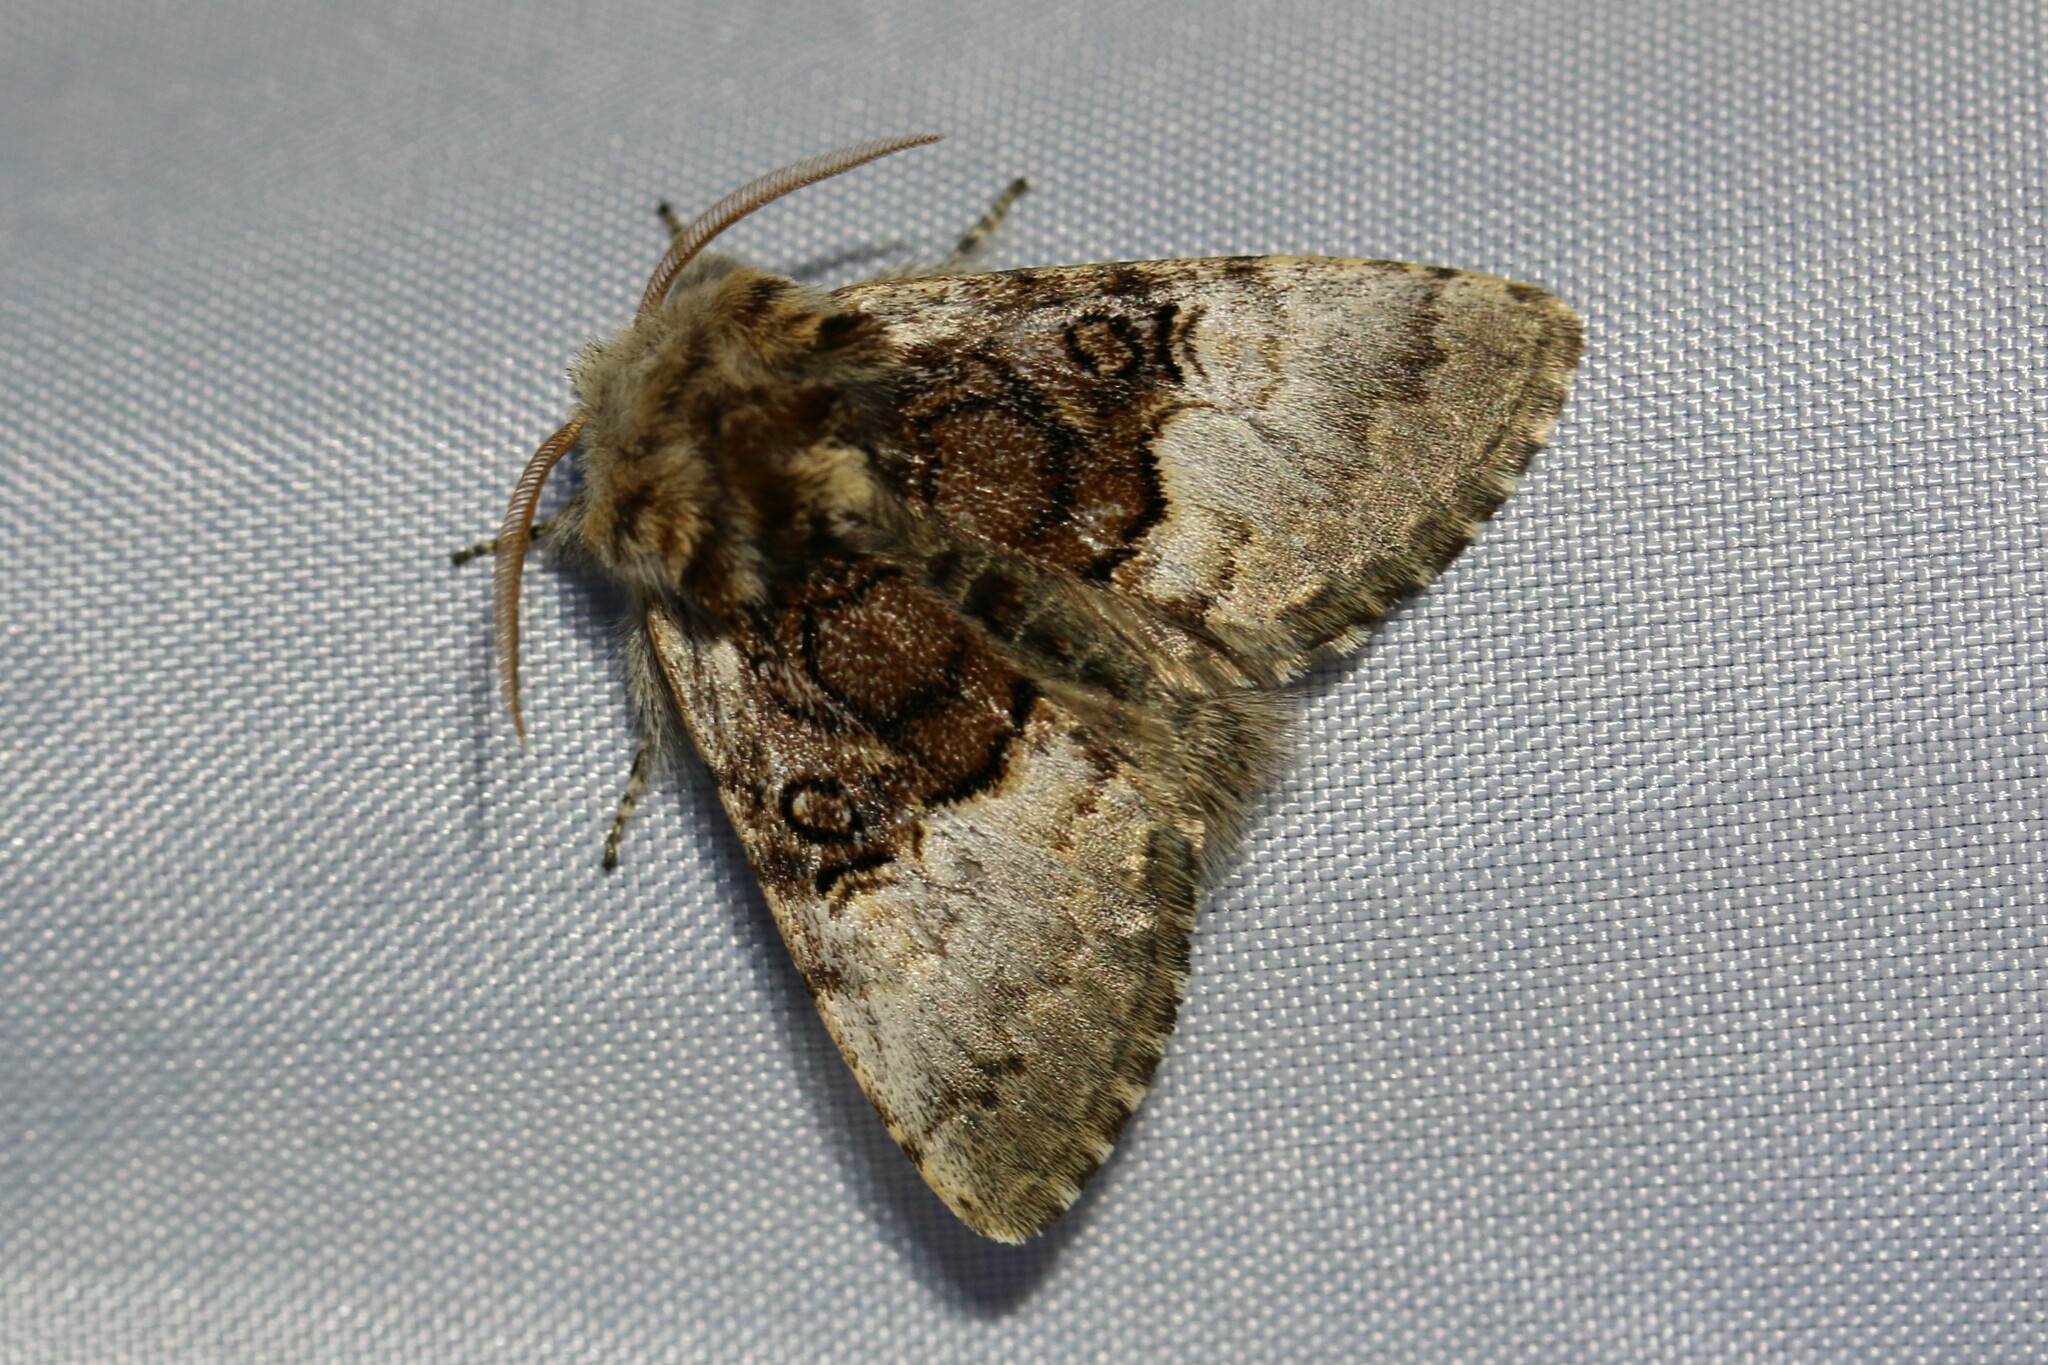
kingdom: Animalia
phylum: Arthropoda
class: Insecta
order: Lepidoptera
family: Noctuidae
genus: Colocasia
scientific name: Colocasia coryli
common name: Nut-tree tussock
